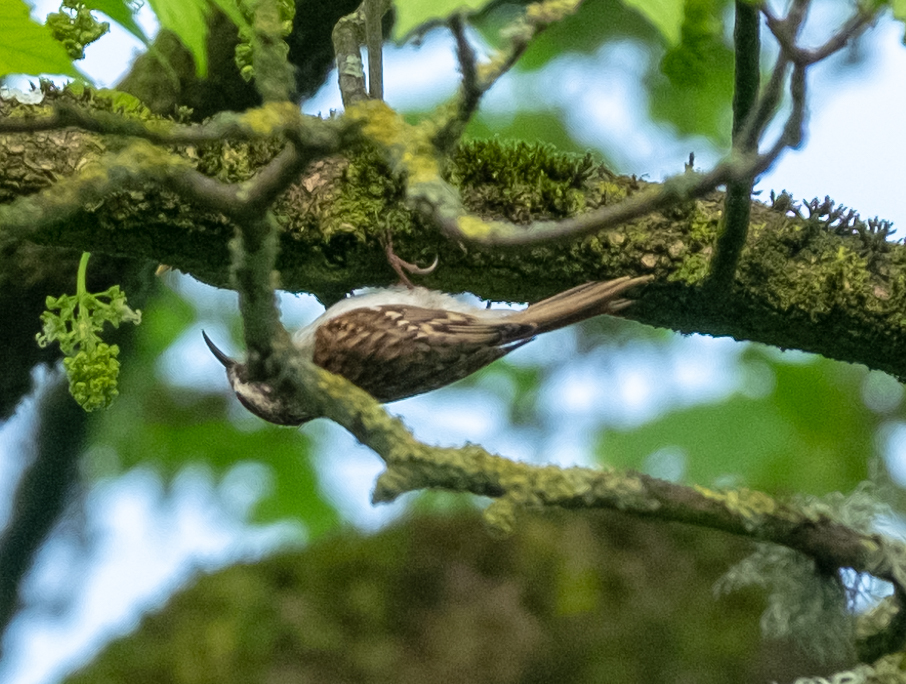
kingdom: Animalia
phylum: Chordata
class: Aves
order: Passeriformes
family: Certhiidae
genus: Certhia
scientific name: Certhia familiaris
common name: Eurasian treecreeper
